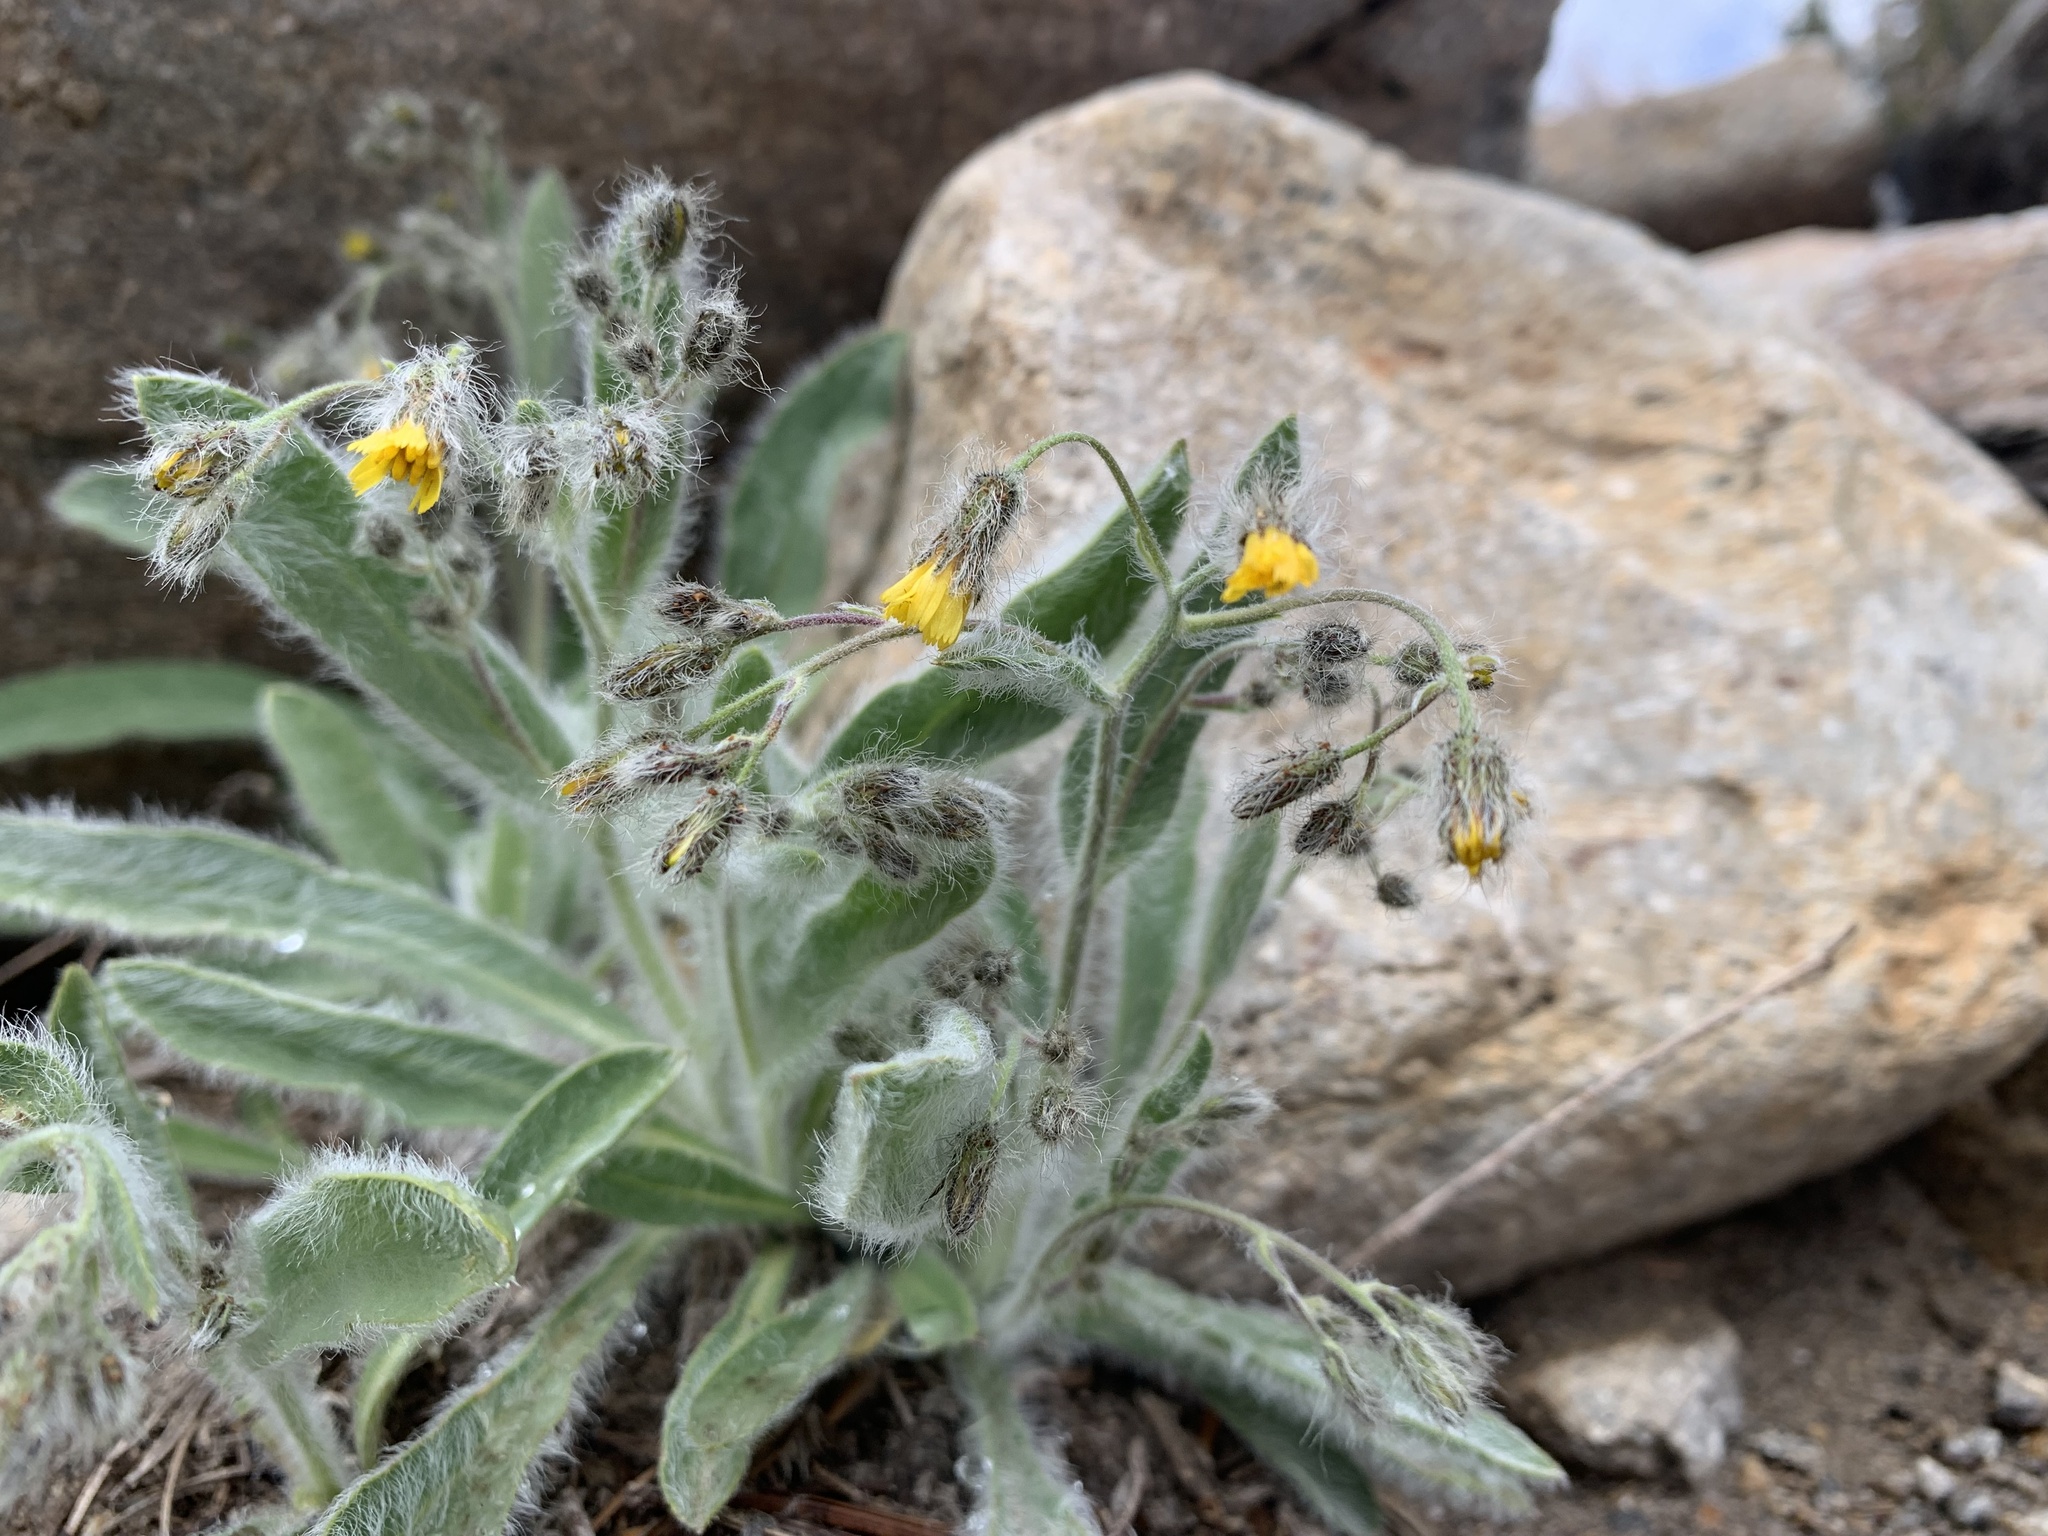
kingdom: Plantae
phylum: Tracheophyta
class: Magnoliopsida
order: Asterales
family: Asteraceae
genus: Hieracium
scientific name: Hieracium horridum
